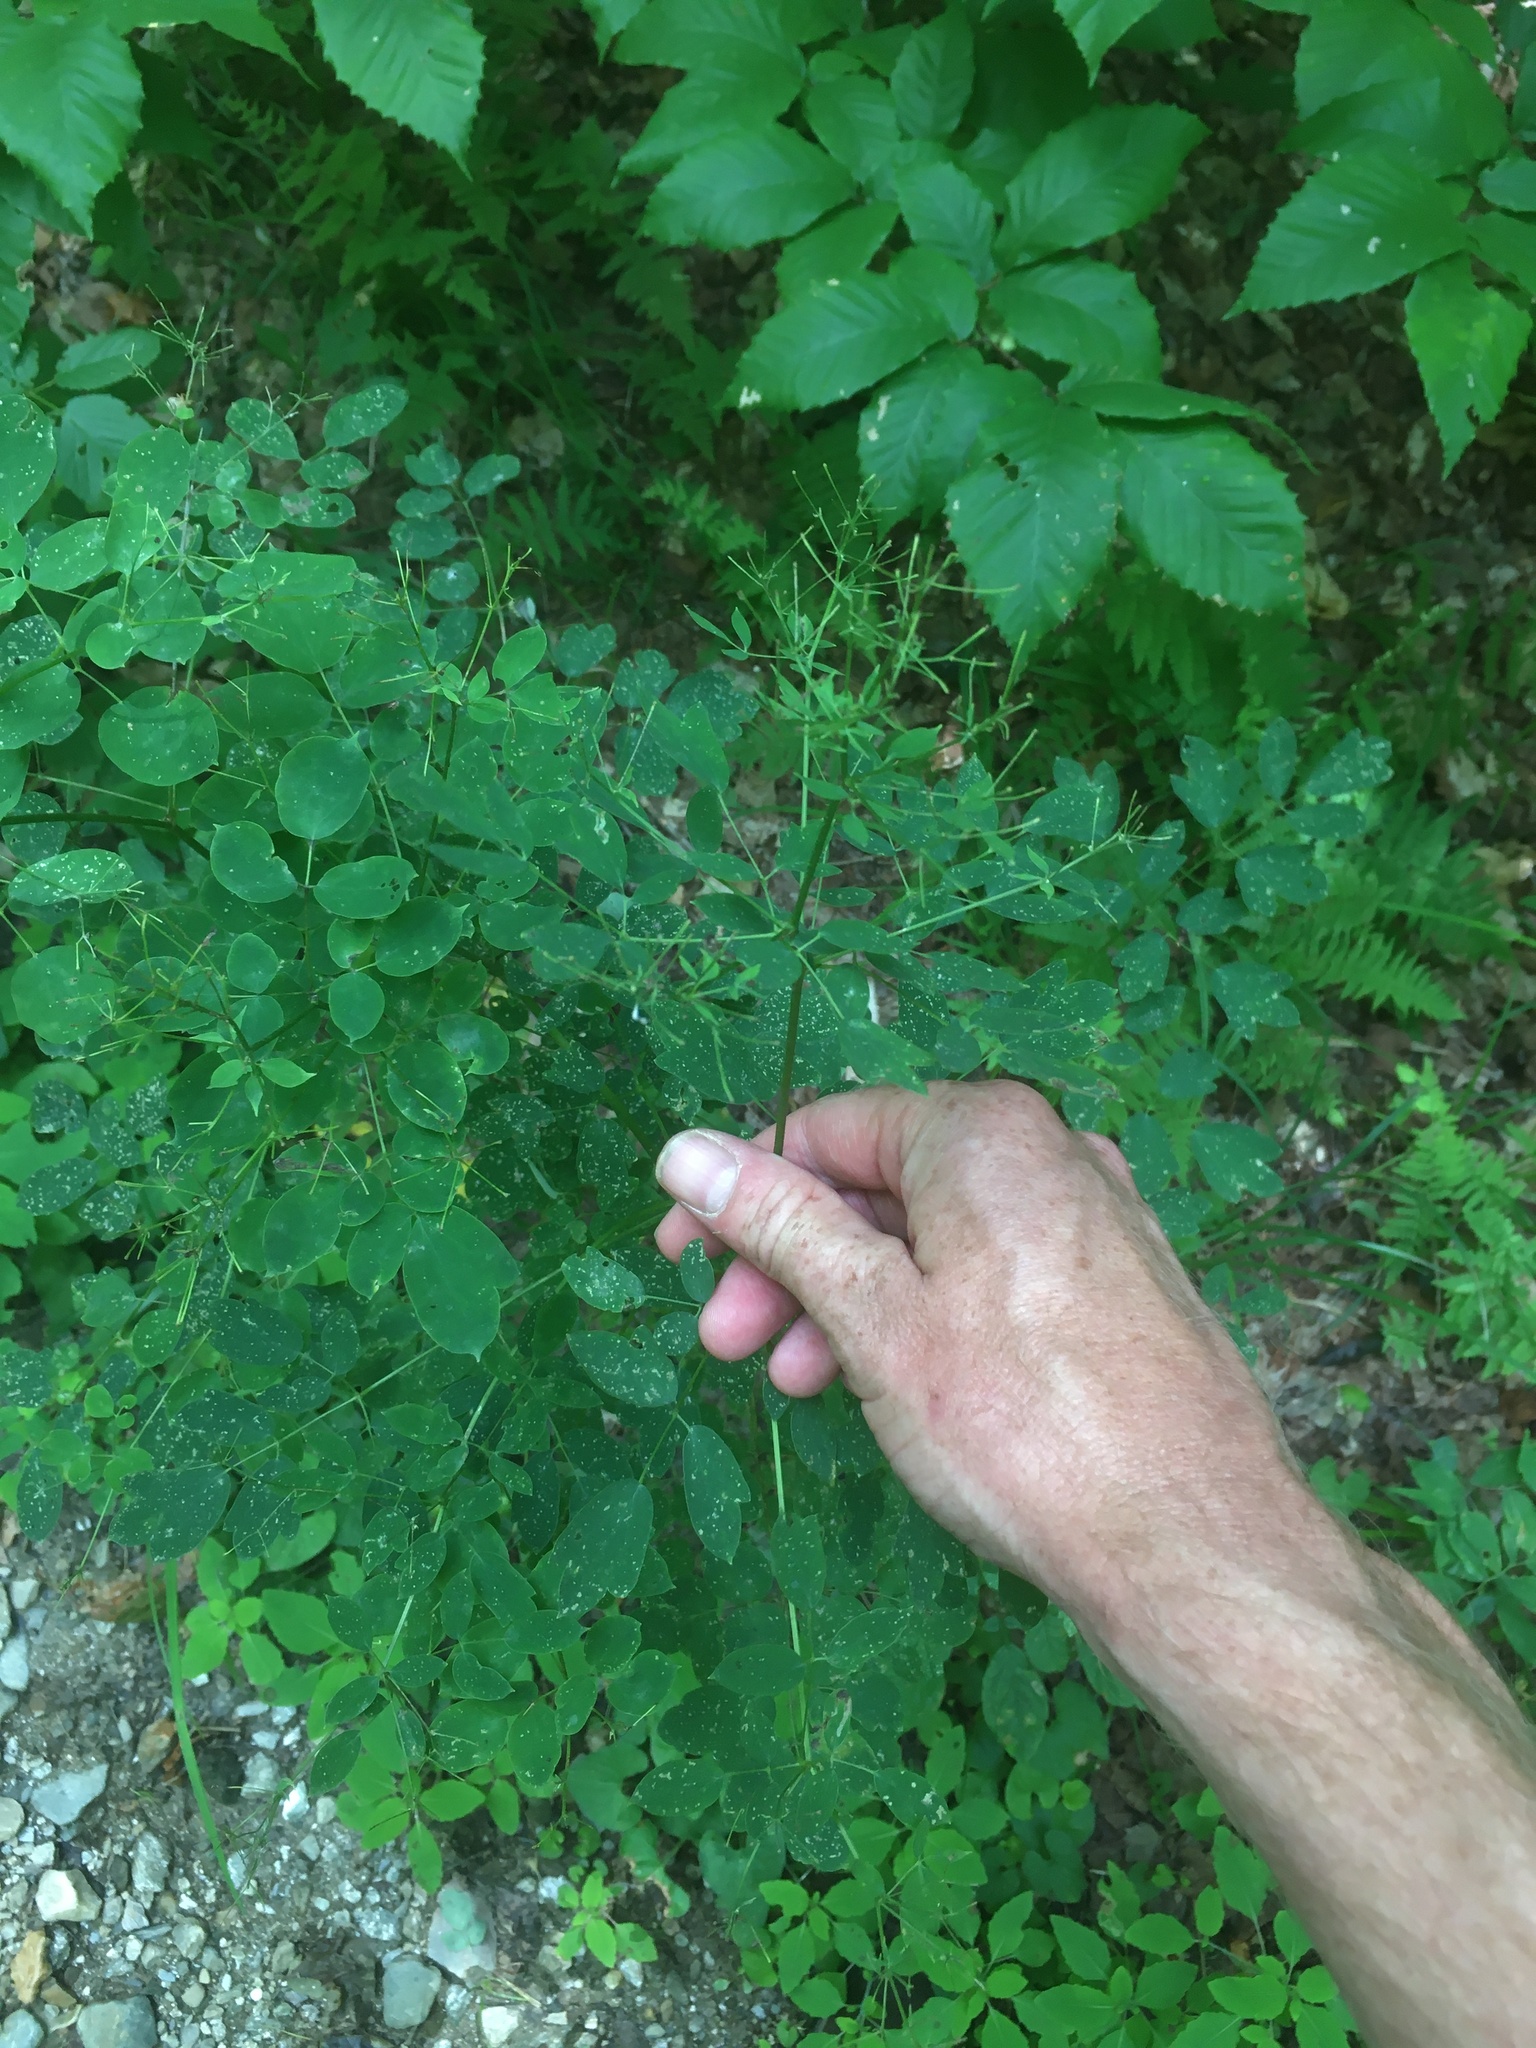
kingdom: Plantae
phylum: Tracheophyta
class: Magnoliopsida
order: Ranunculales
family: Ranunculaceae
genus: Thalictrum
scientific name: Thalictrum pubescens
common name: King-of-the-meadow
